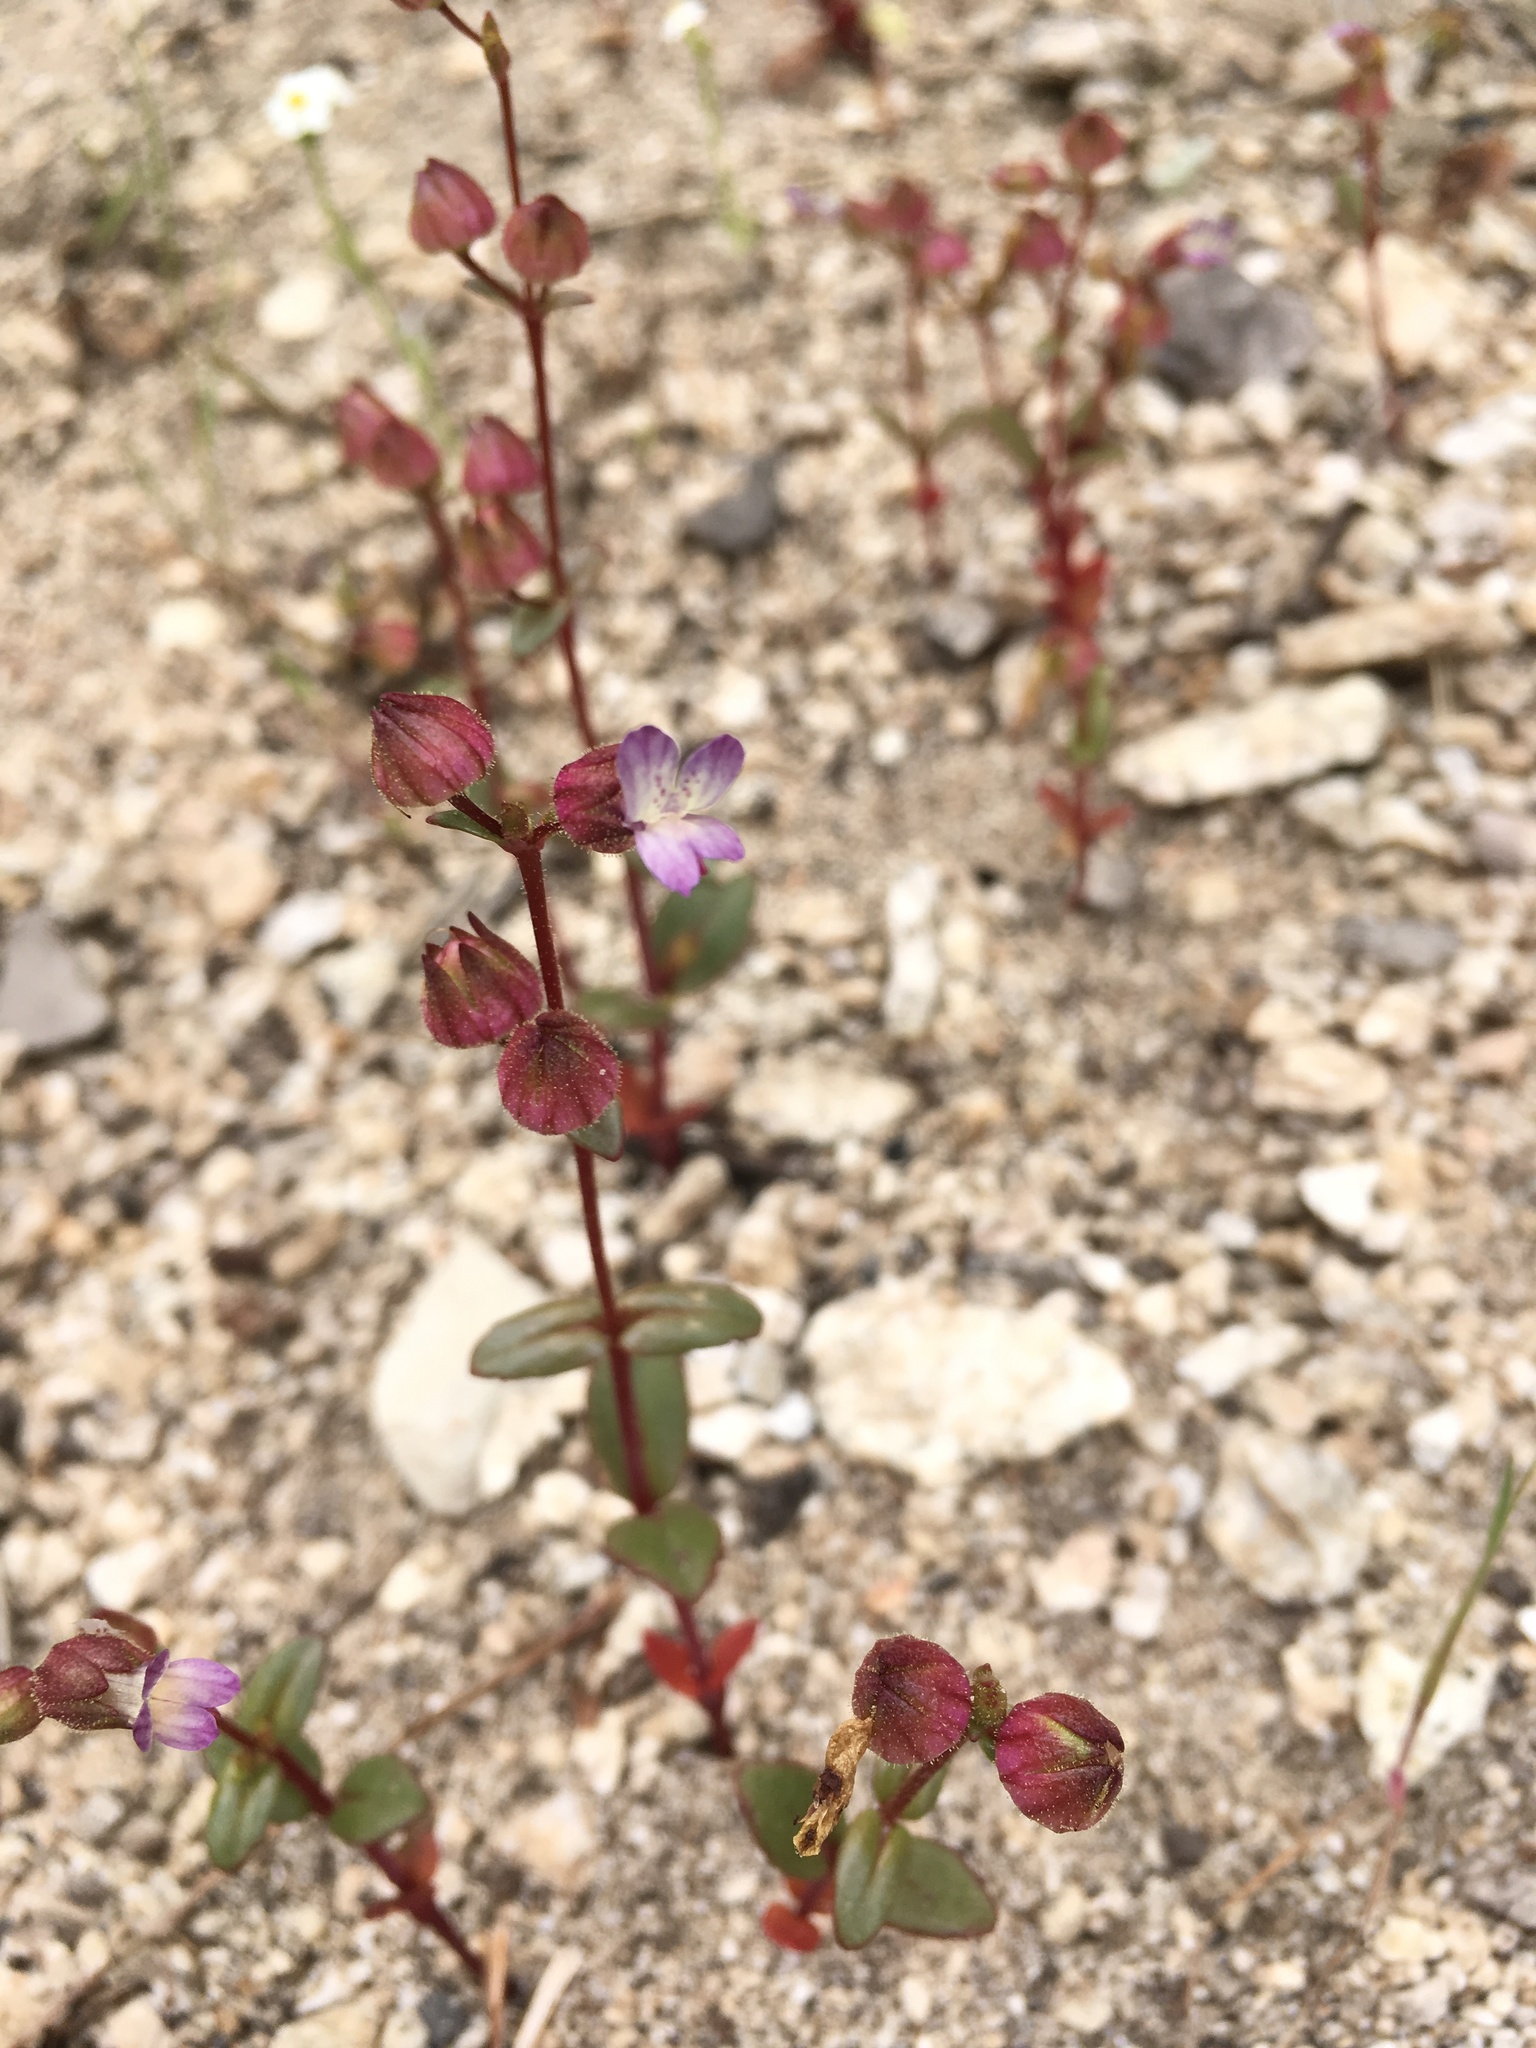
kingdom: Plantae
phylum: Tracheophyta
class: Magnoliopsida
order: Lamiales
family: Plantaginaceae
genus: Collinsia
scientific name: Collinsia callosa
